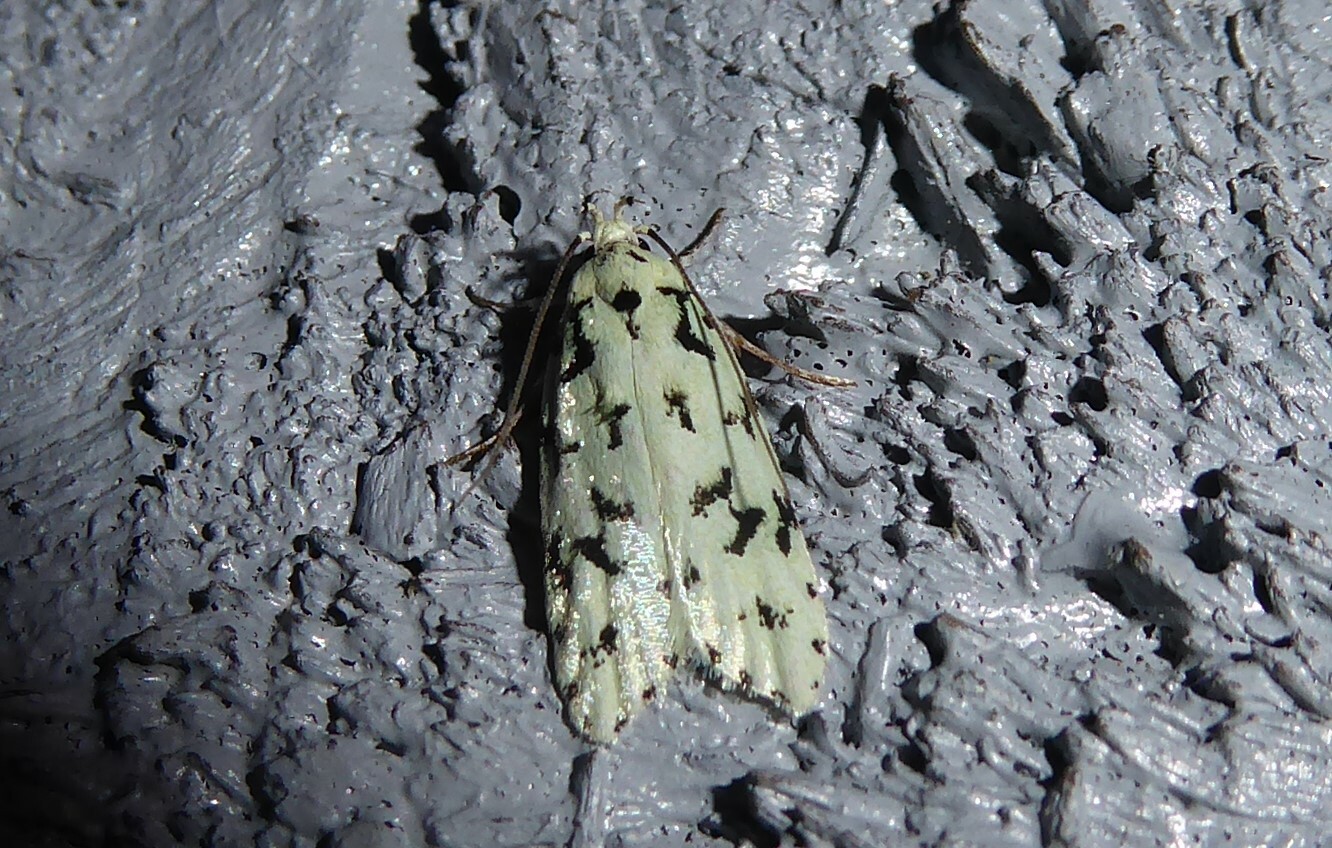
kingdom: Animalia
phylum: Arthropoda
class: Insecta
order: Lepidoptera
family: Oecophoridae
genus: Izatha
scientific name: Izatha huttoni
